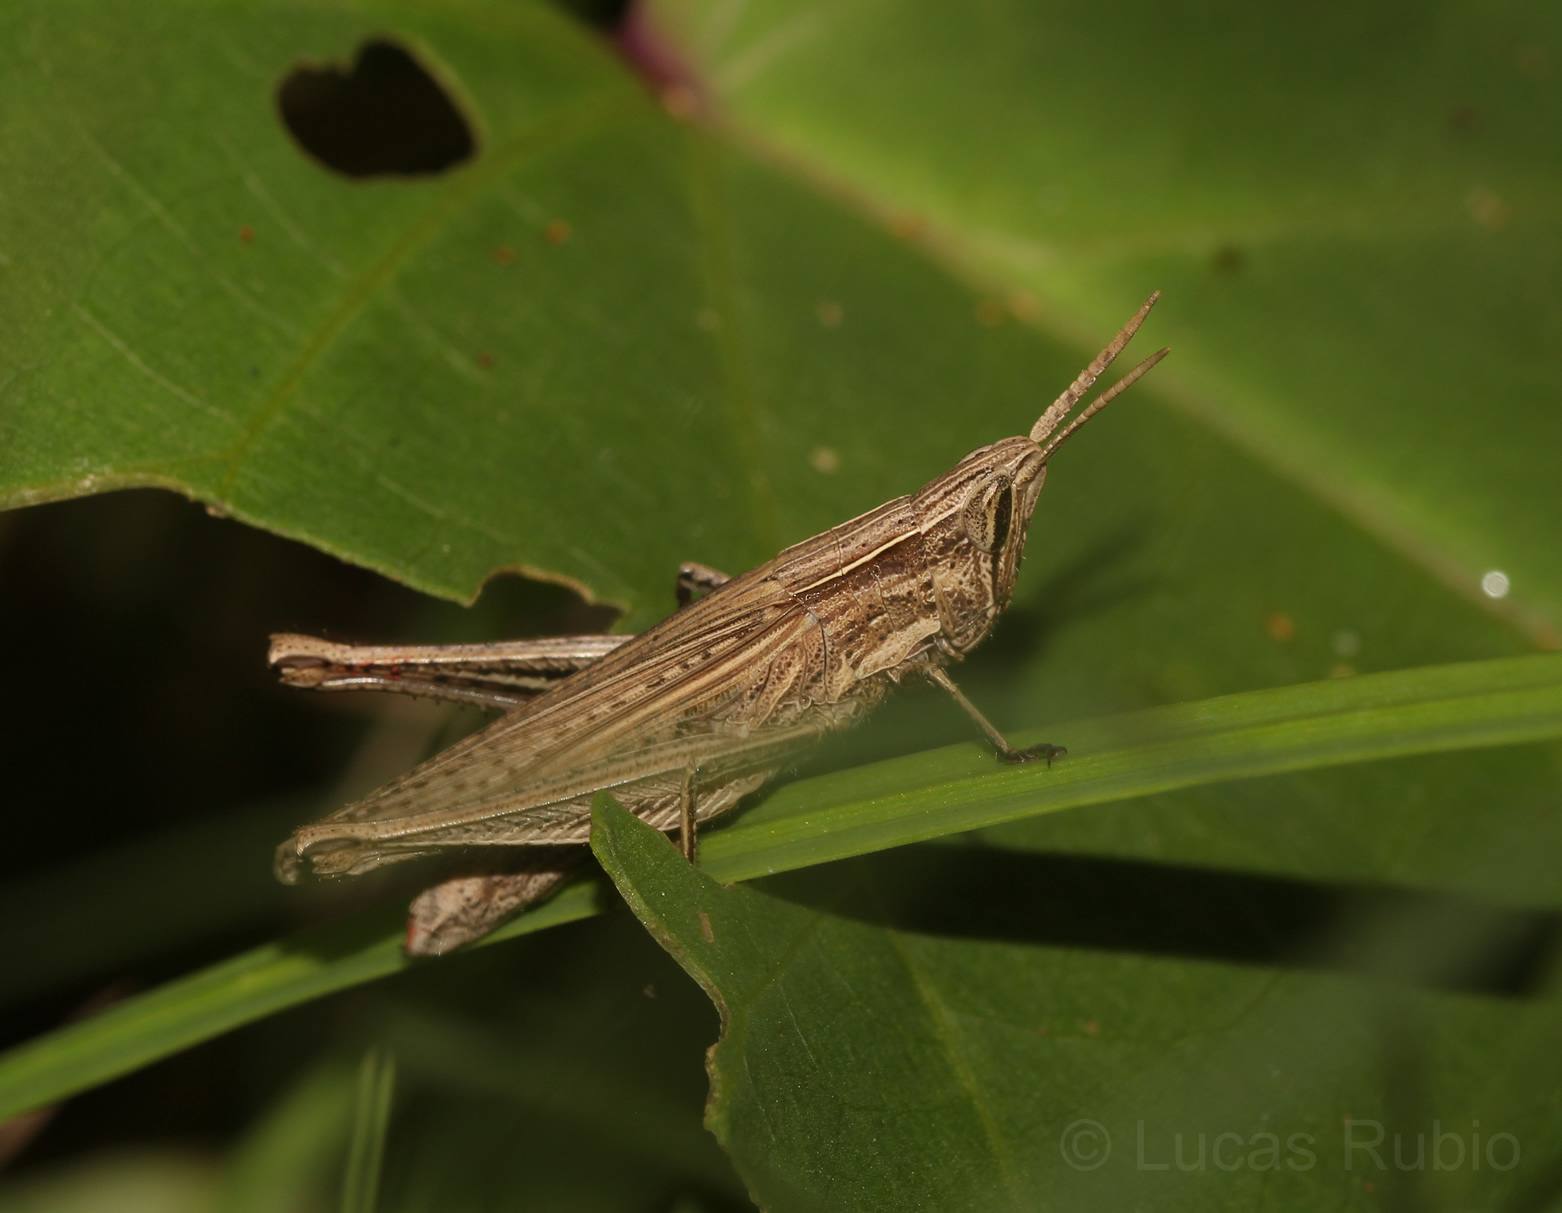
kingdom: Animalia
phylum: Arthropoda
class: Insecta
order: Orthoptera
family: Acrididae
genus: Laplatacris
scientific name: Laplatacris dispar
